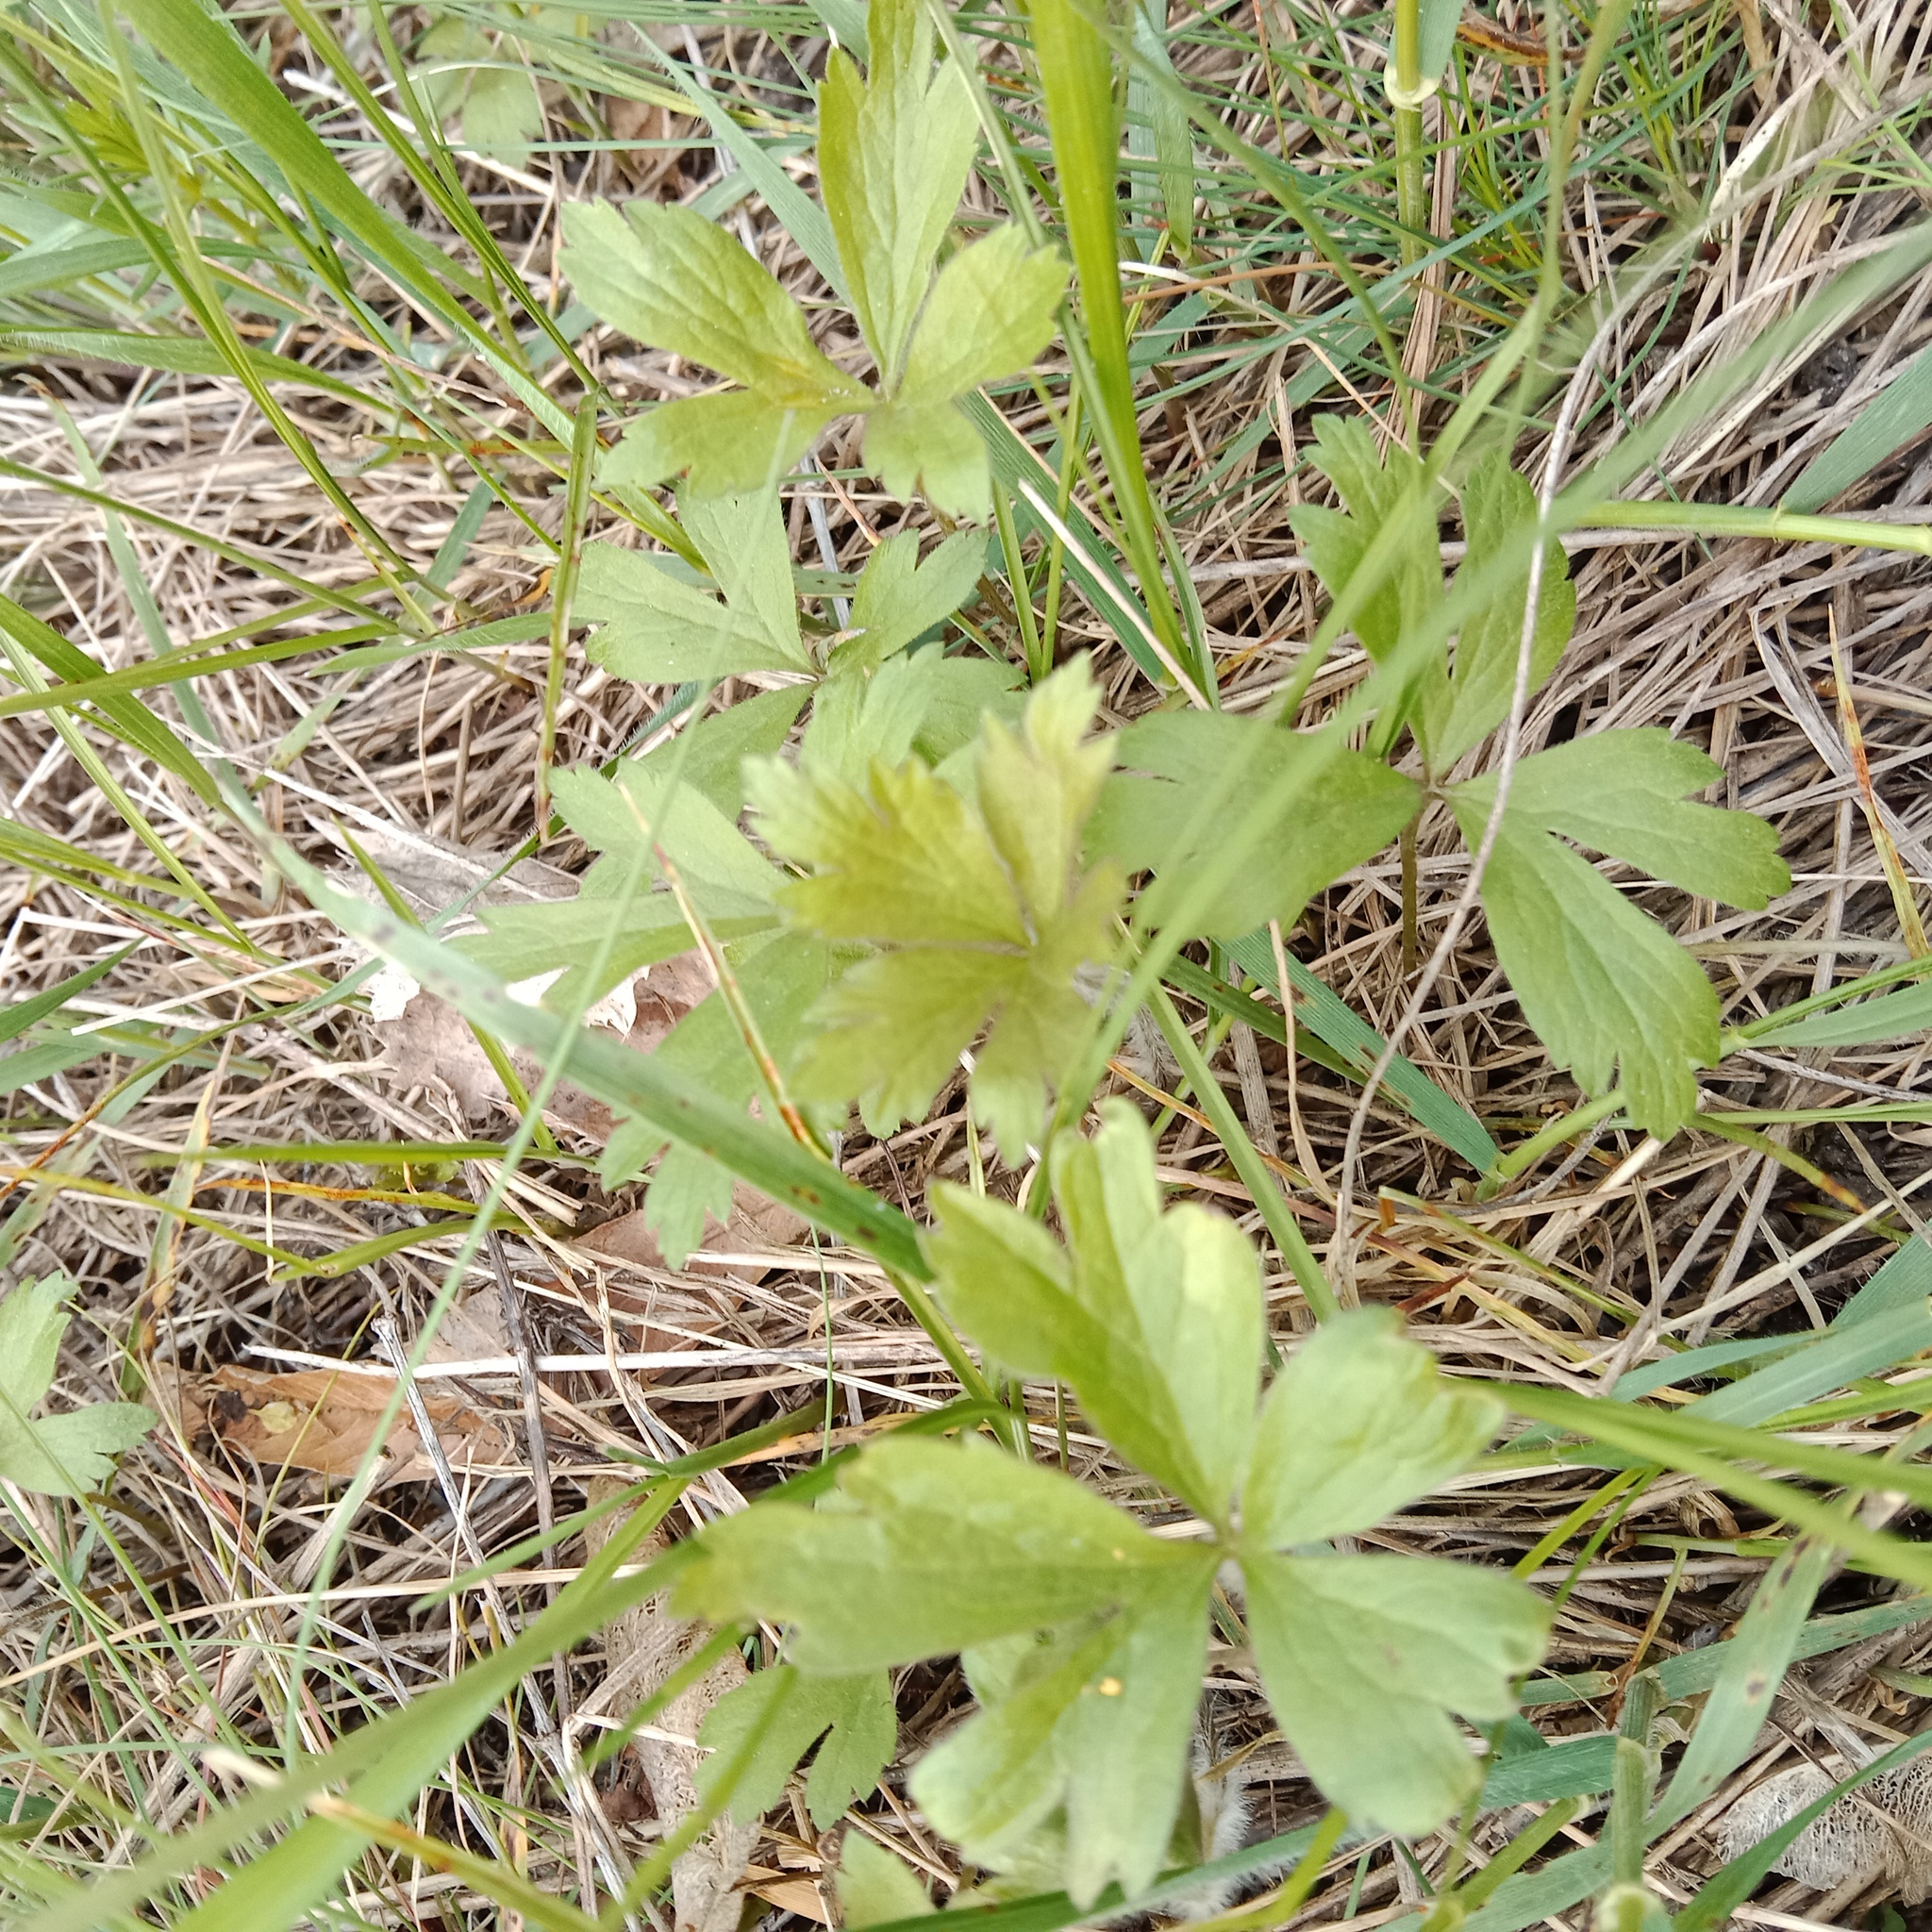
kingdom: Plantae
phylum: Tracheophyta
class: Magnoliopsida
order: Ranunculales
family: Ranunculaceae
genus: Anemone
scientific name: Anemone sylvestris
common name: Snowdrop anemone
